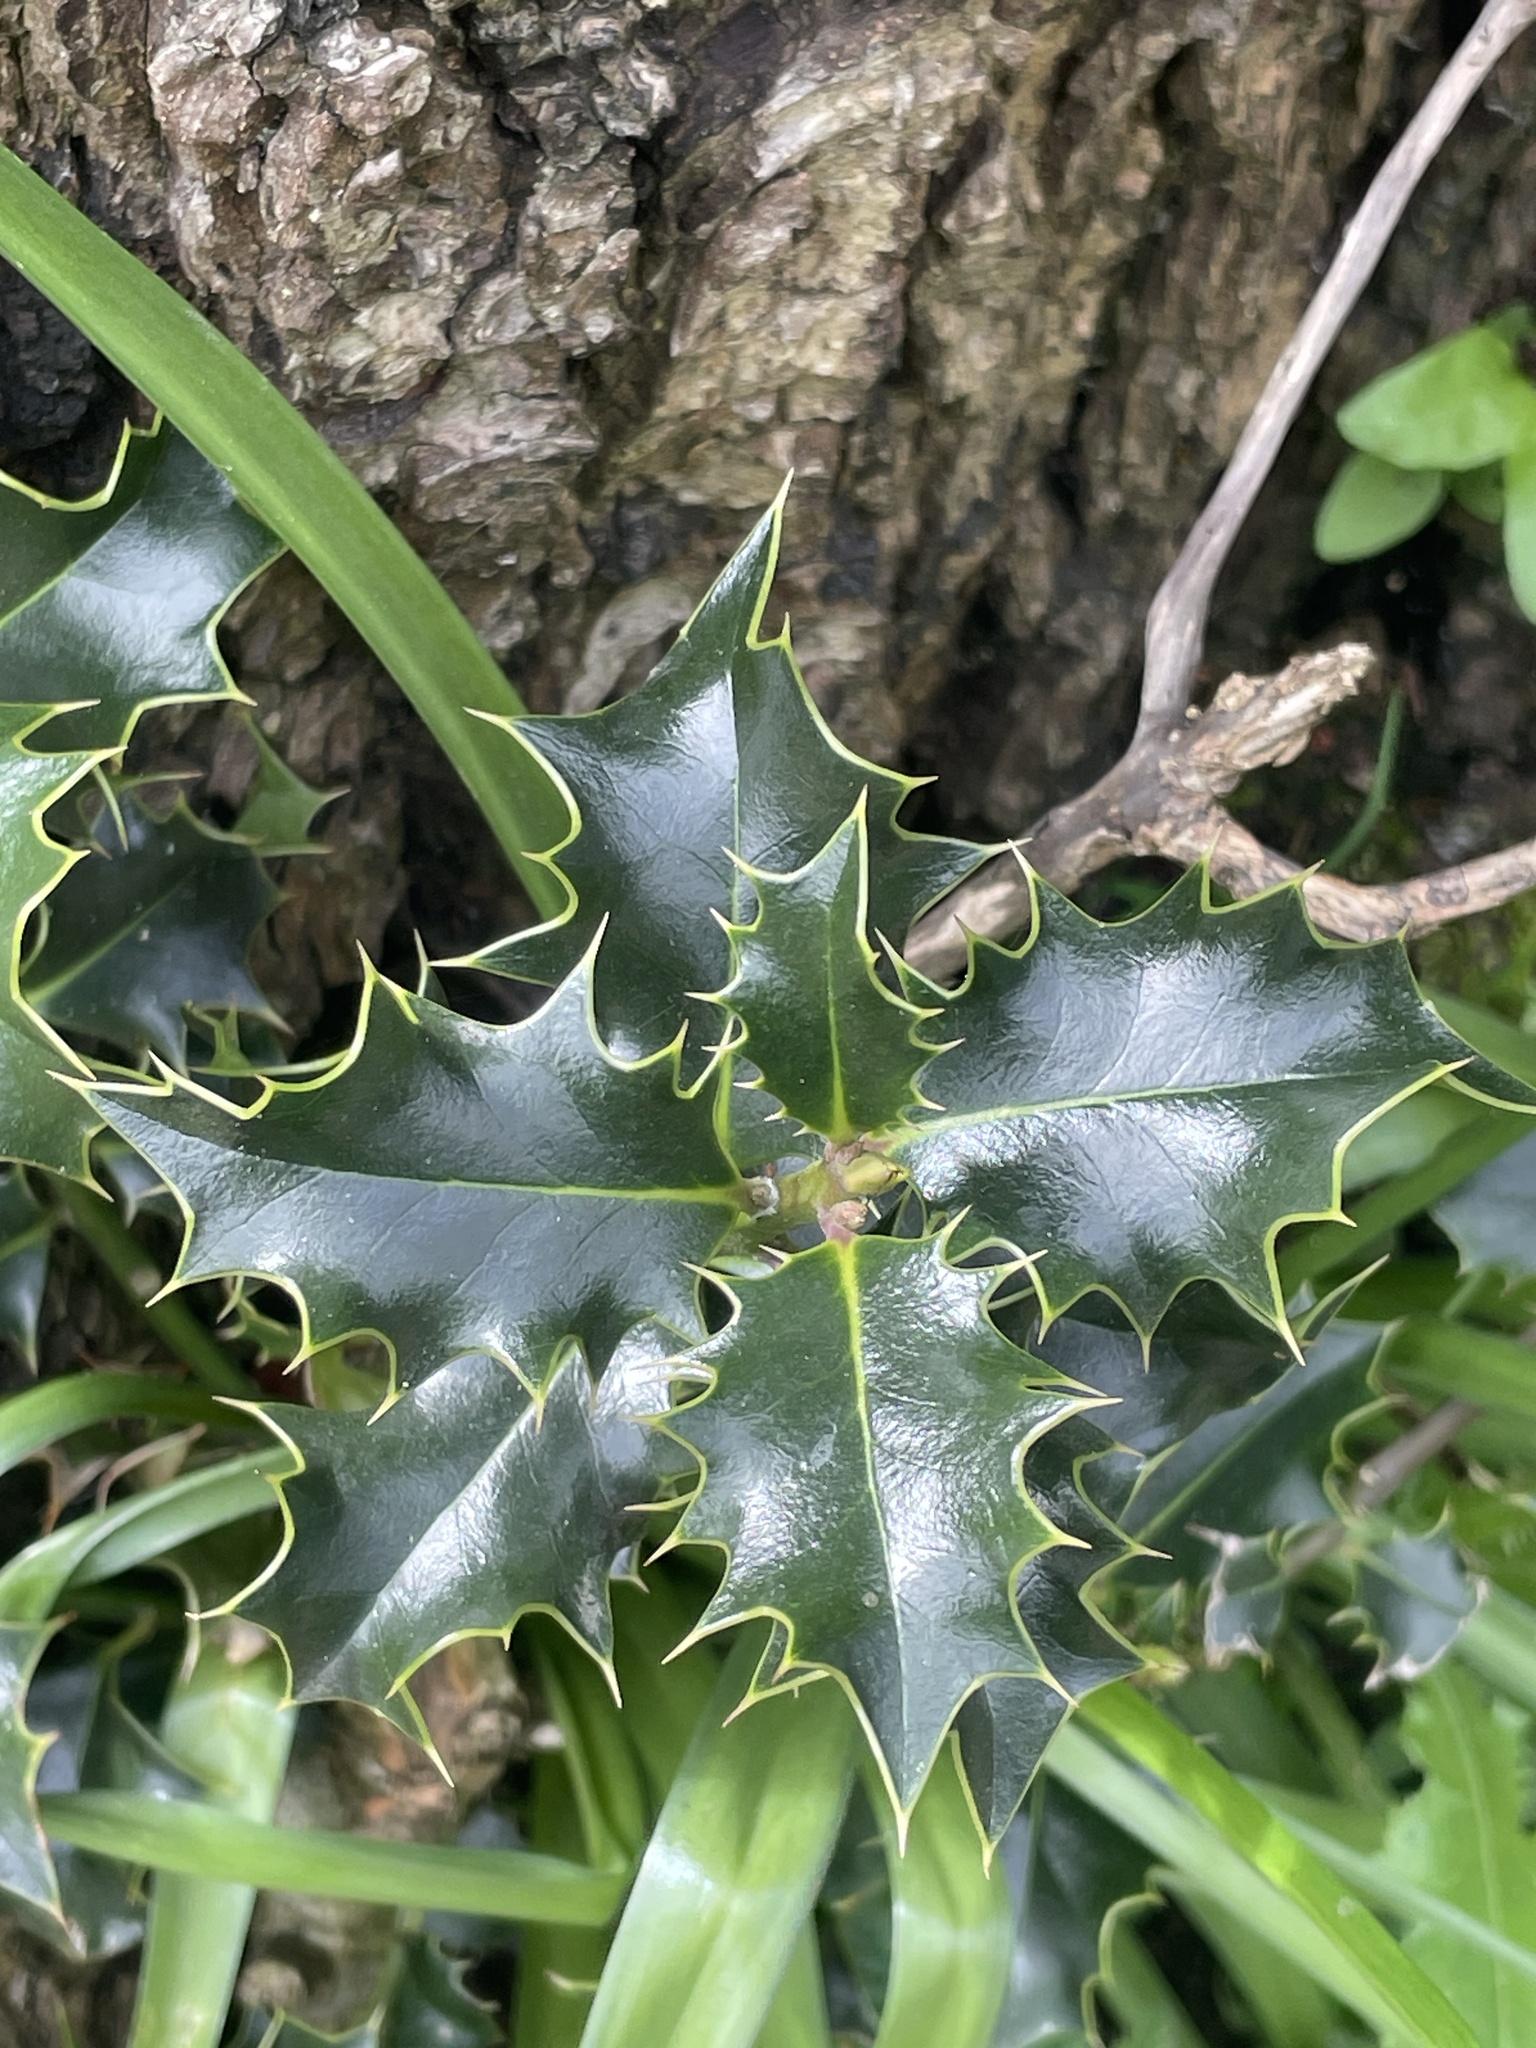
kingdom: Plantae
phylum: Tracheophyta
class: Magnoliopsida
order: Aquifoliales
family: Aquifoliaceae
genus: Ilex
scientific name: Ilex aquifolium
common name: English holly
